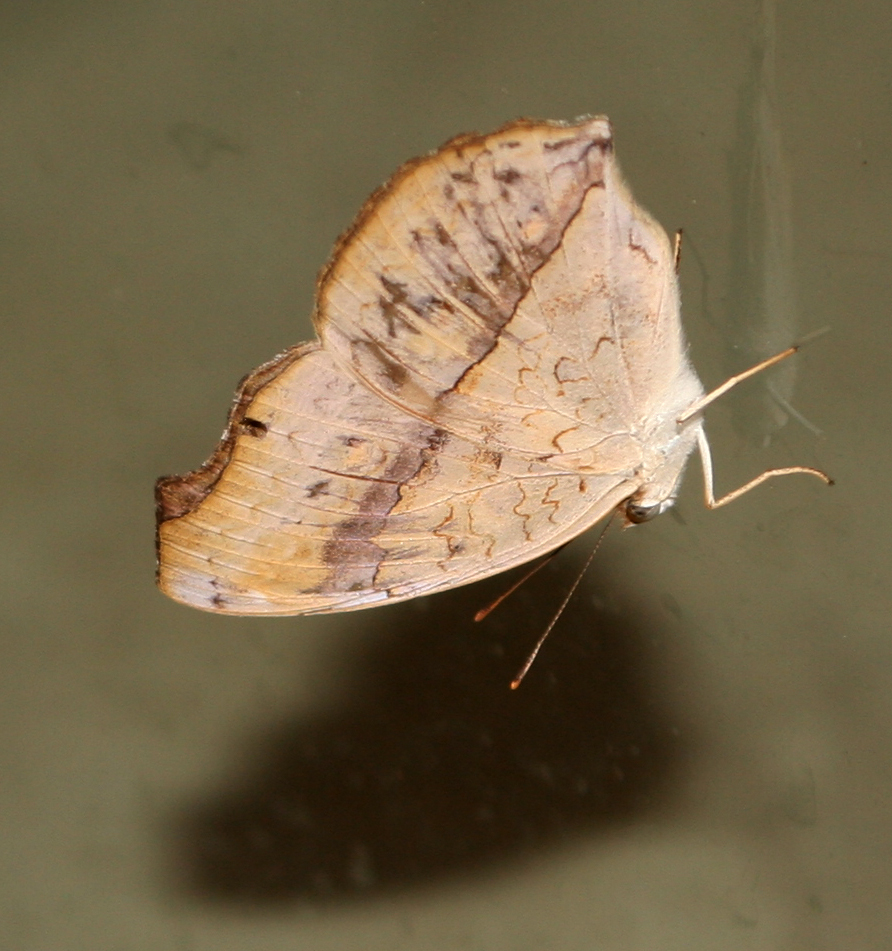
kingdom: Animalia
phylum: Arthropoda
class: Insecta
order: Lepidoptera
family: Nymphalidae
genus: Junonia
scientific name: Junonia atlites
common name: Grey pansy
